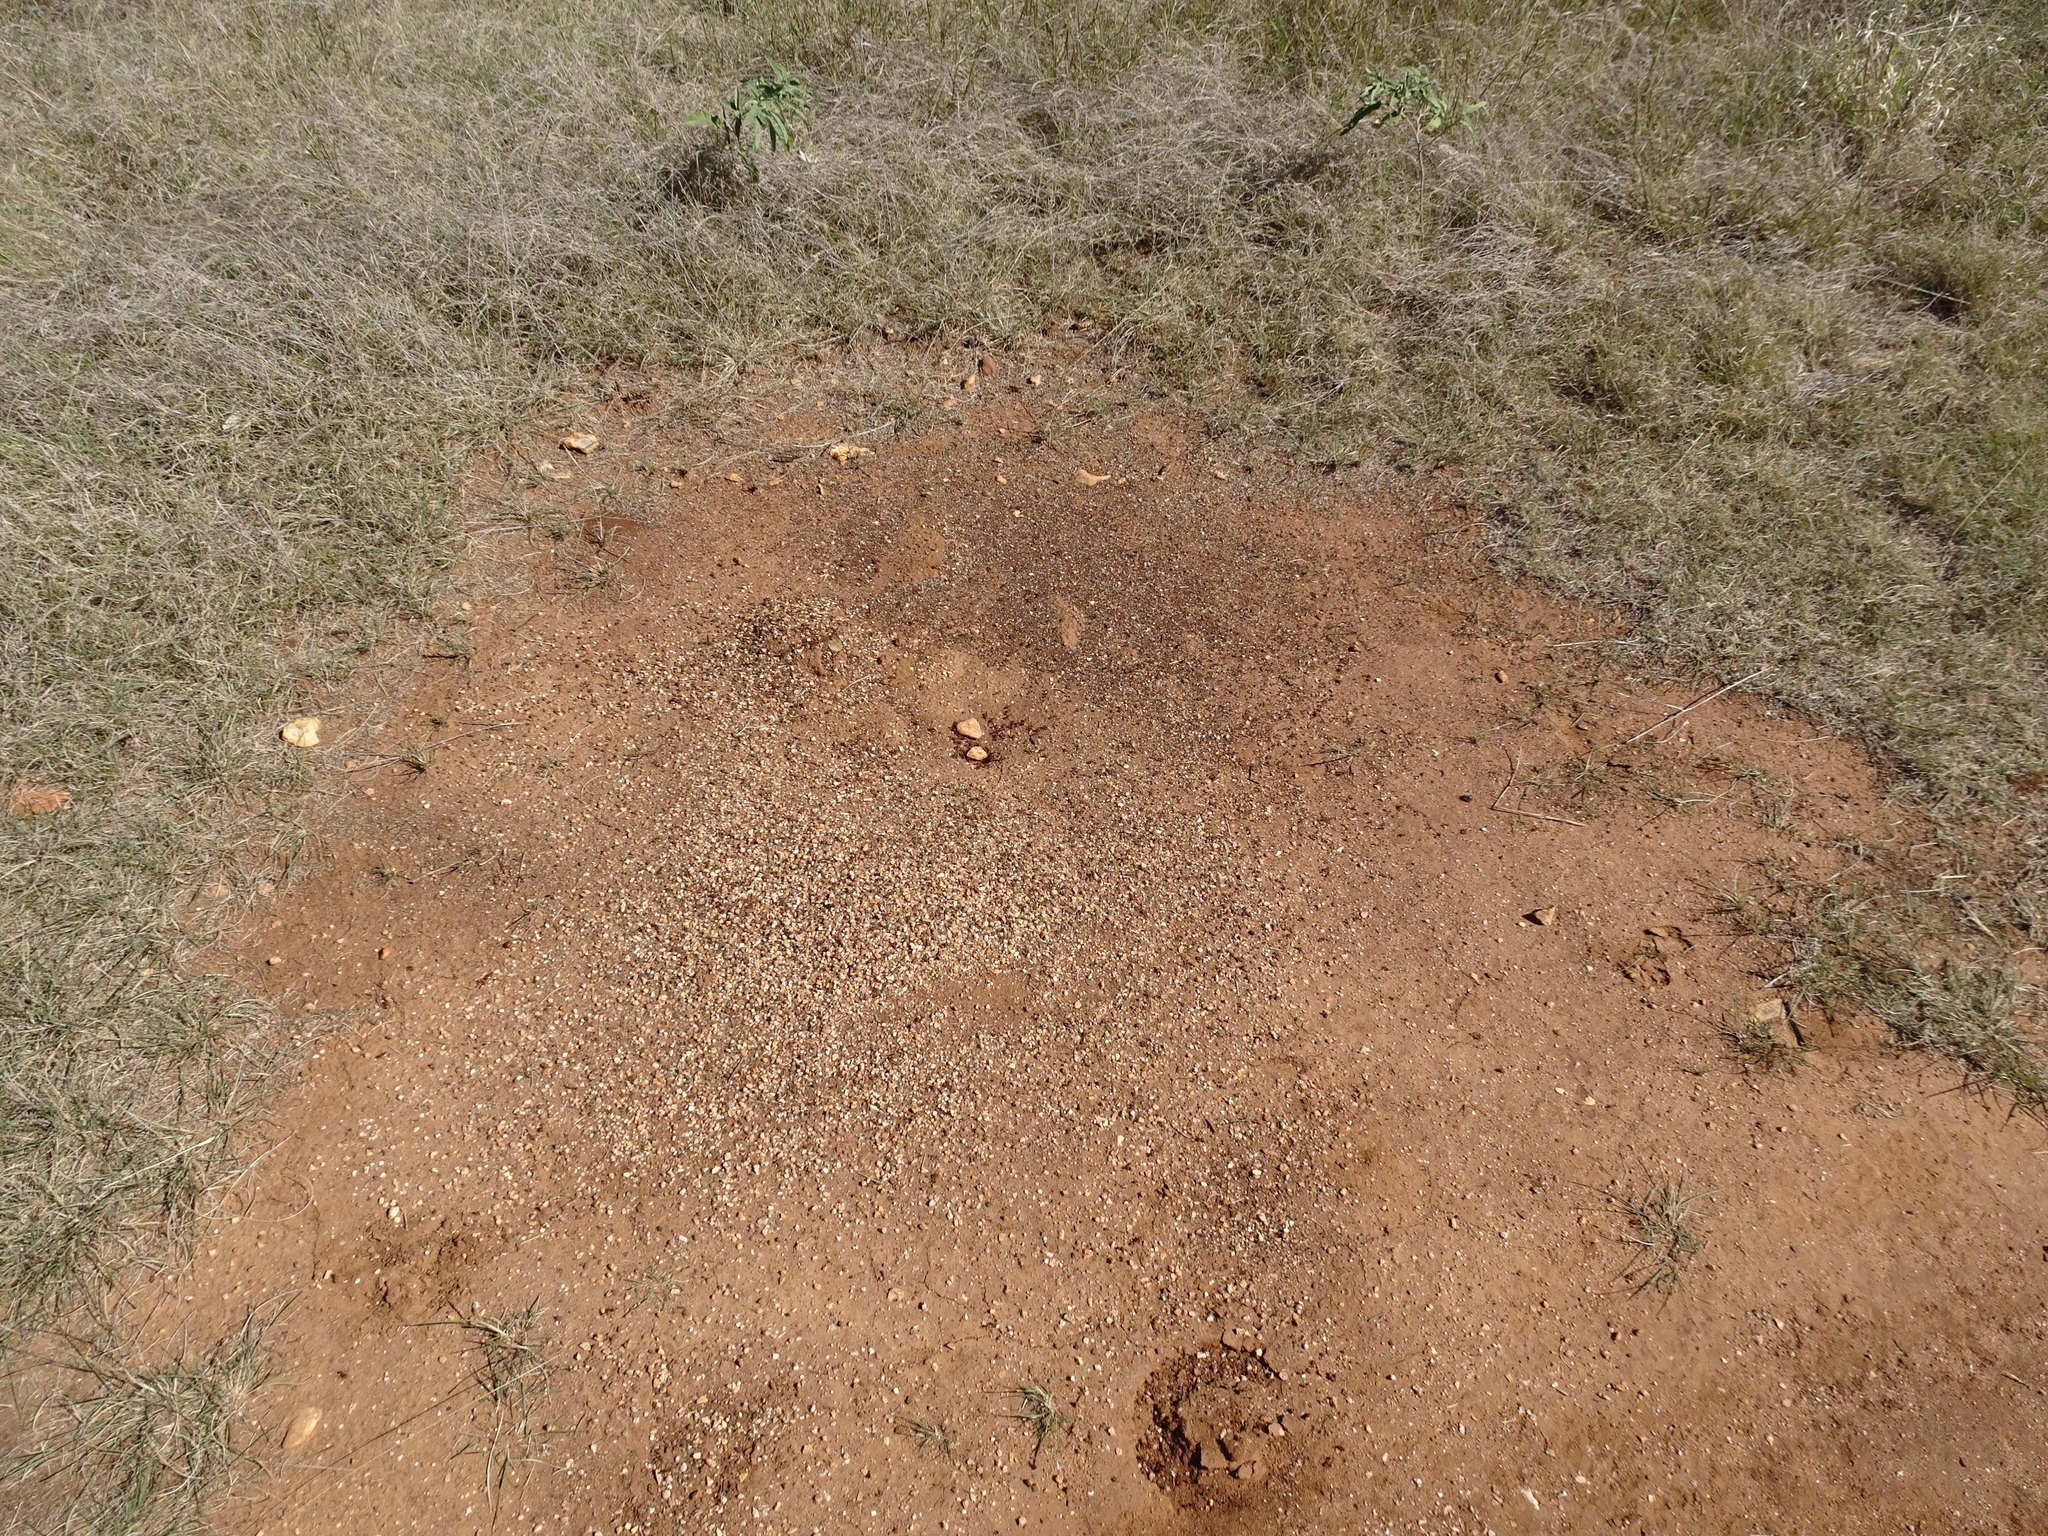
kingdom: Animalia
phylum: Arthropoda
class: Insecta
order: Hymenoptera
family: Formicidae
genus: Pogonomyrmex
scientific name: Pogonomyrmex barbatus
